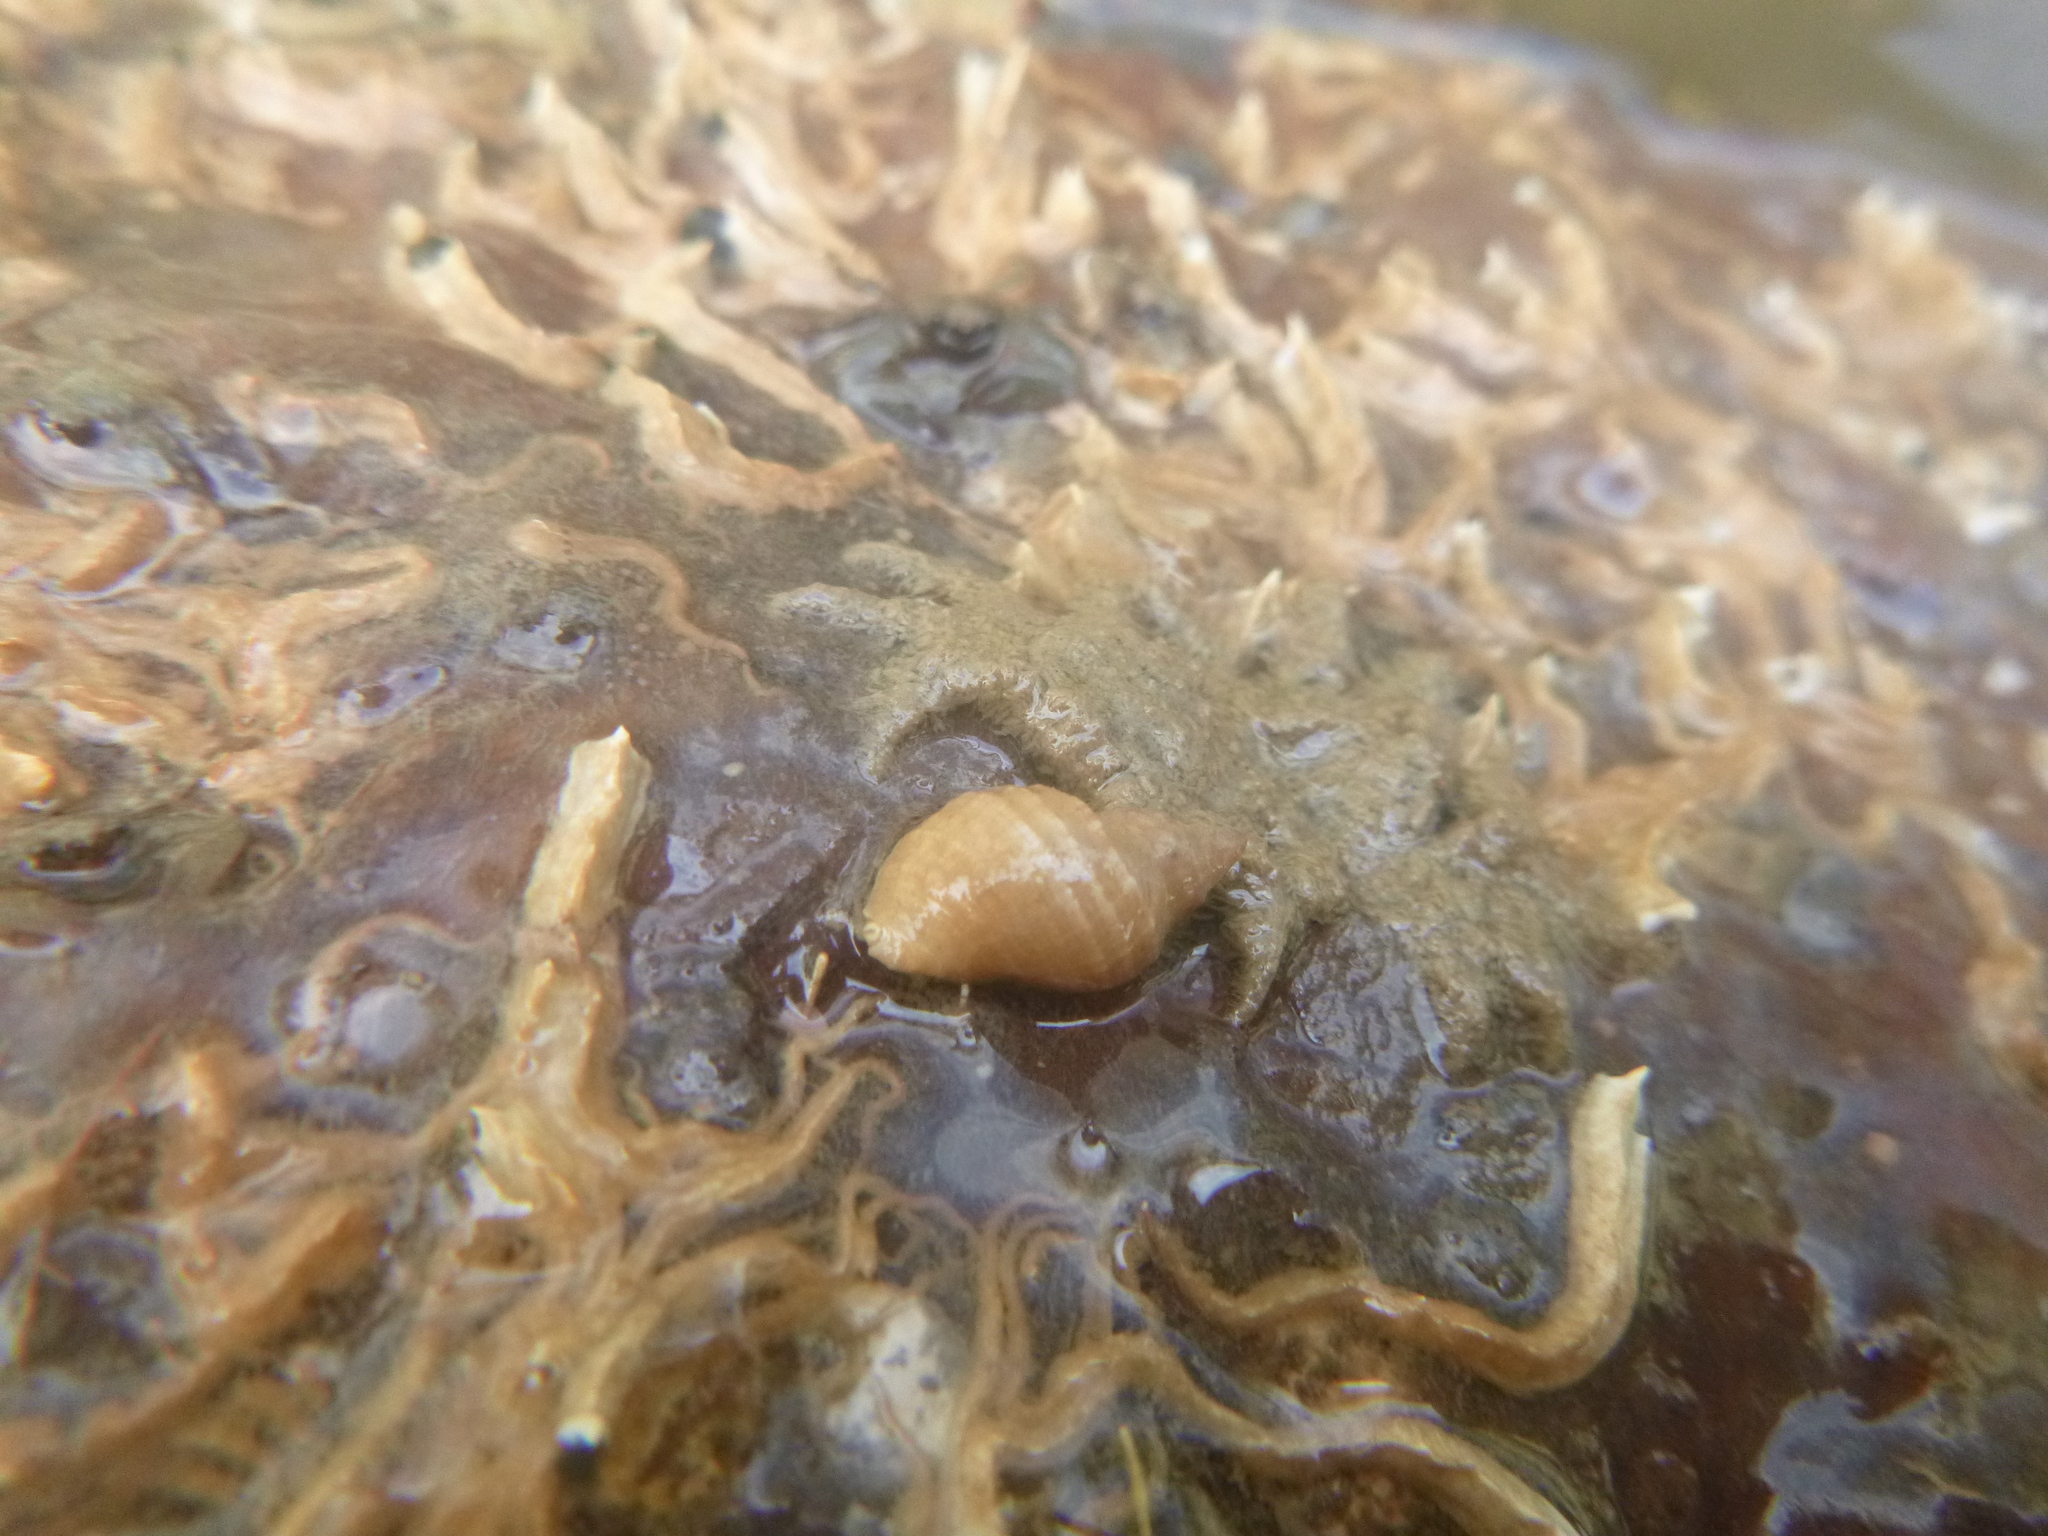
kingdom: Animalia
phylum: Mollusca
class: Gastropoda
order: Neogastropoda
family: Muricidae
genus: Dicathais
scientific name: Dicathais orbita
